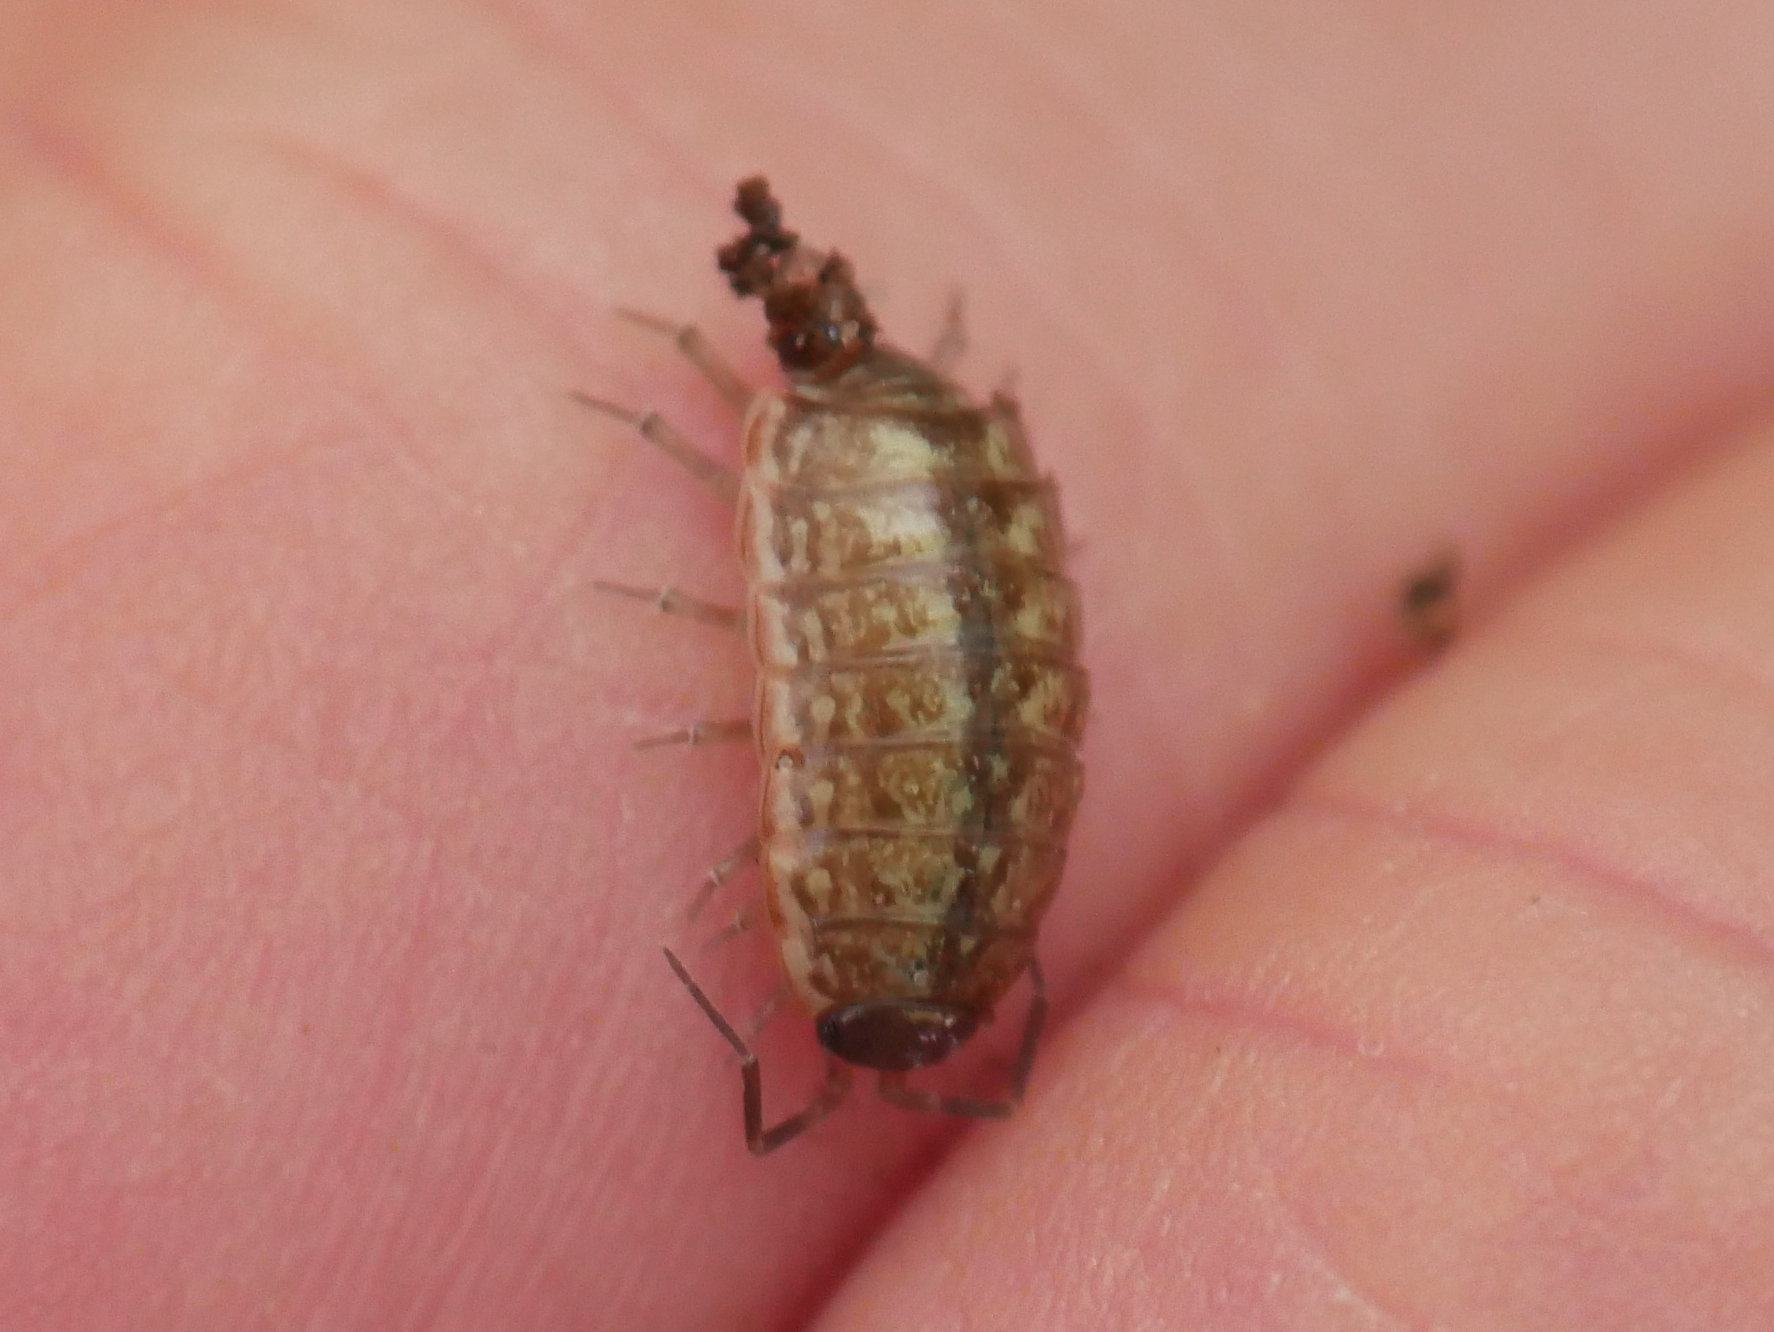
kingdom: Animalia
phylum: Arthropoda
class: Malacostraca
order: Isopoda
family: Philosciidae
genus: Philoscia
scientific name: Philoscia muscorum
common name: Common striped woodlouse
